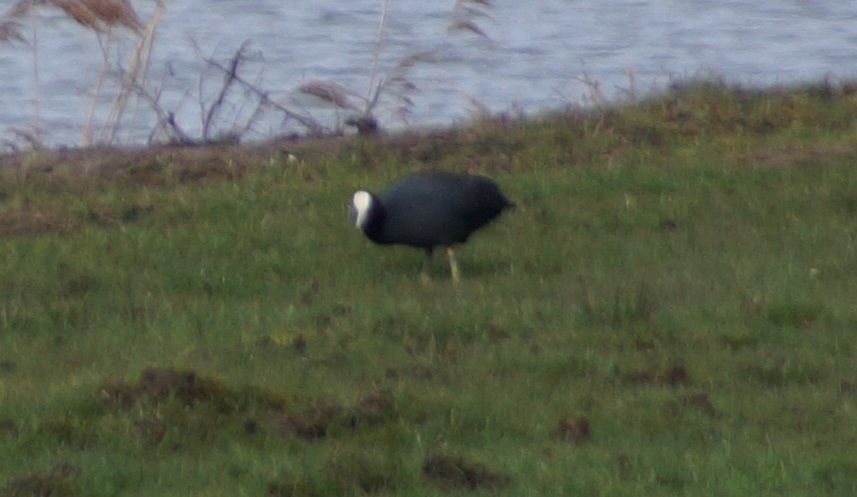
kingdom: Animalia
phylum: Chordata
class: Aves
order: Gruiformes
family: Rallidae
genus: Fulica
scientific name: Fulica atra
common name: Eurasian coot
